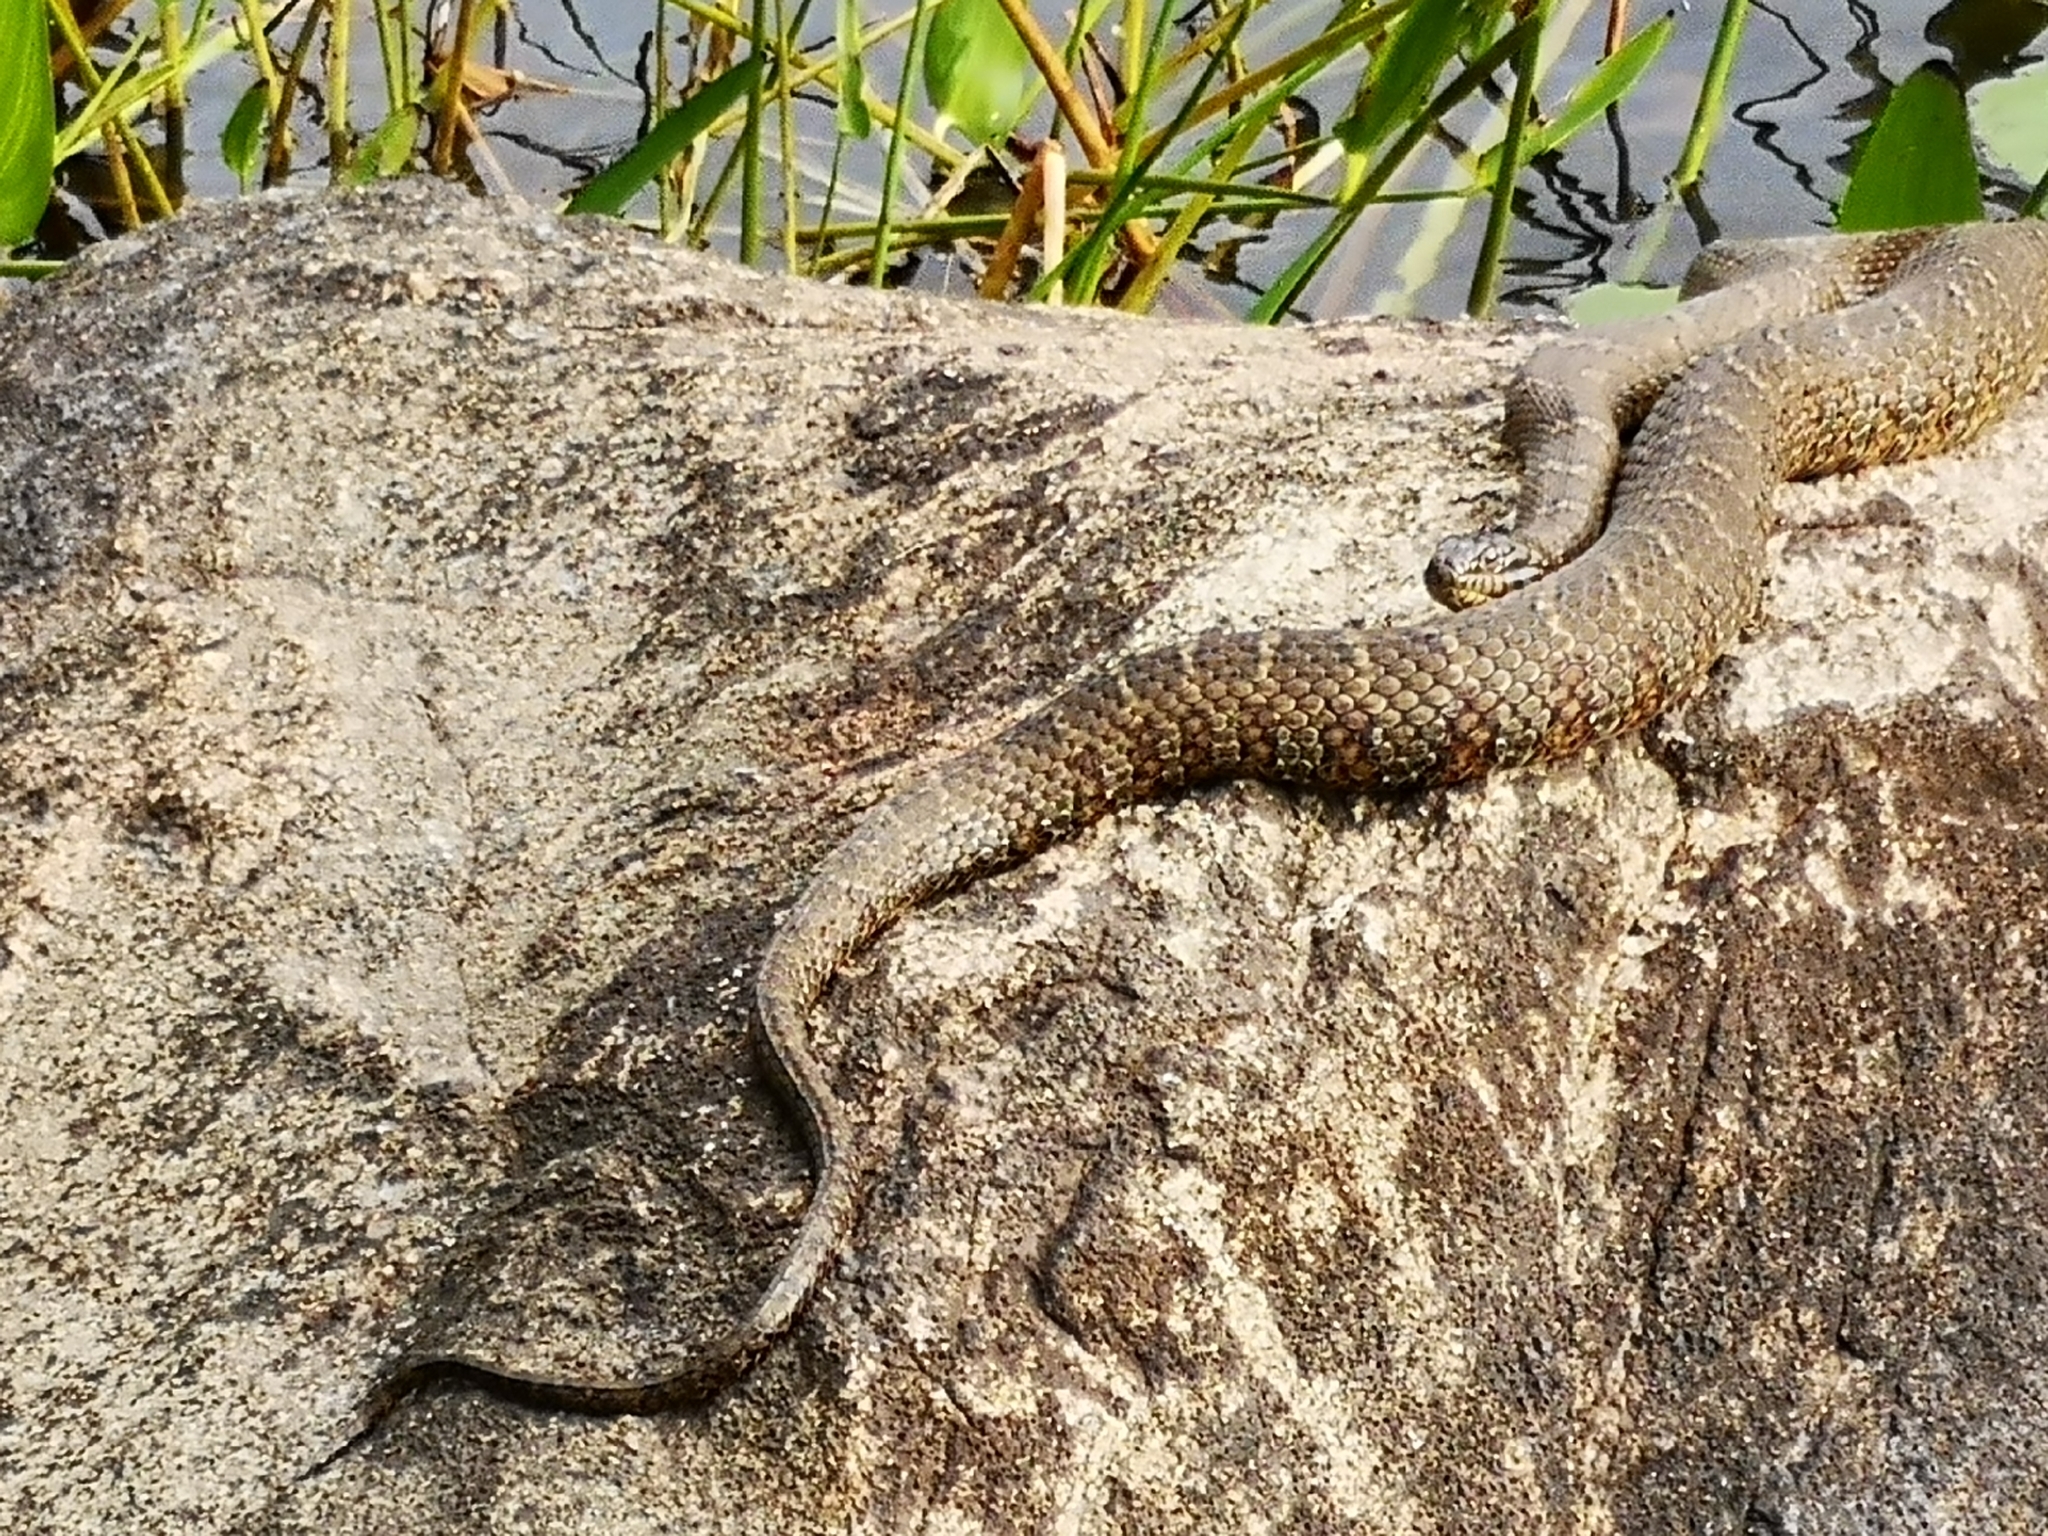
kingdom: Animalia
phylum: Chordata
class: Squamata
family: Colubridae
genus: Nerodia
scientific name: Nerodia sipedon
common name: Northern water snake
